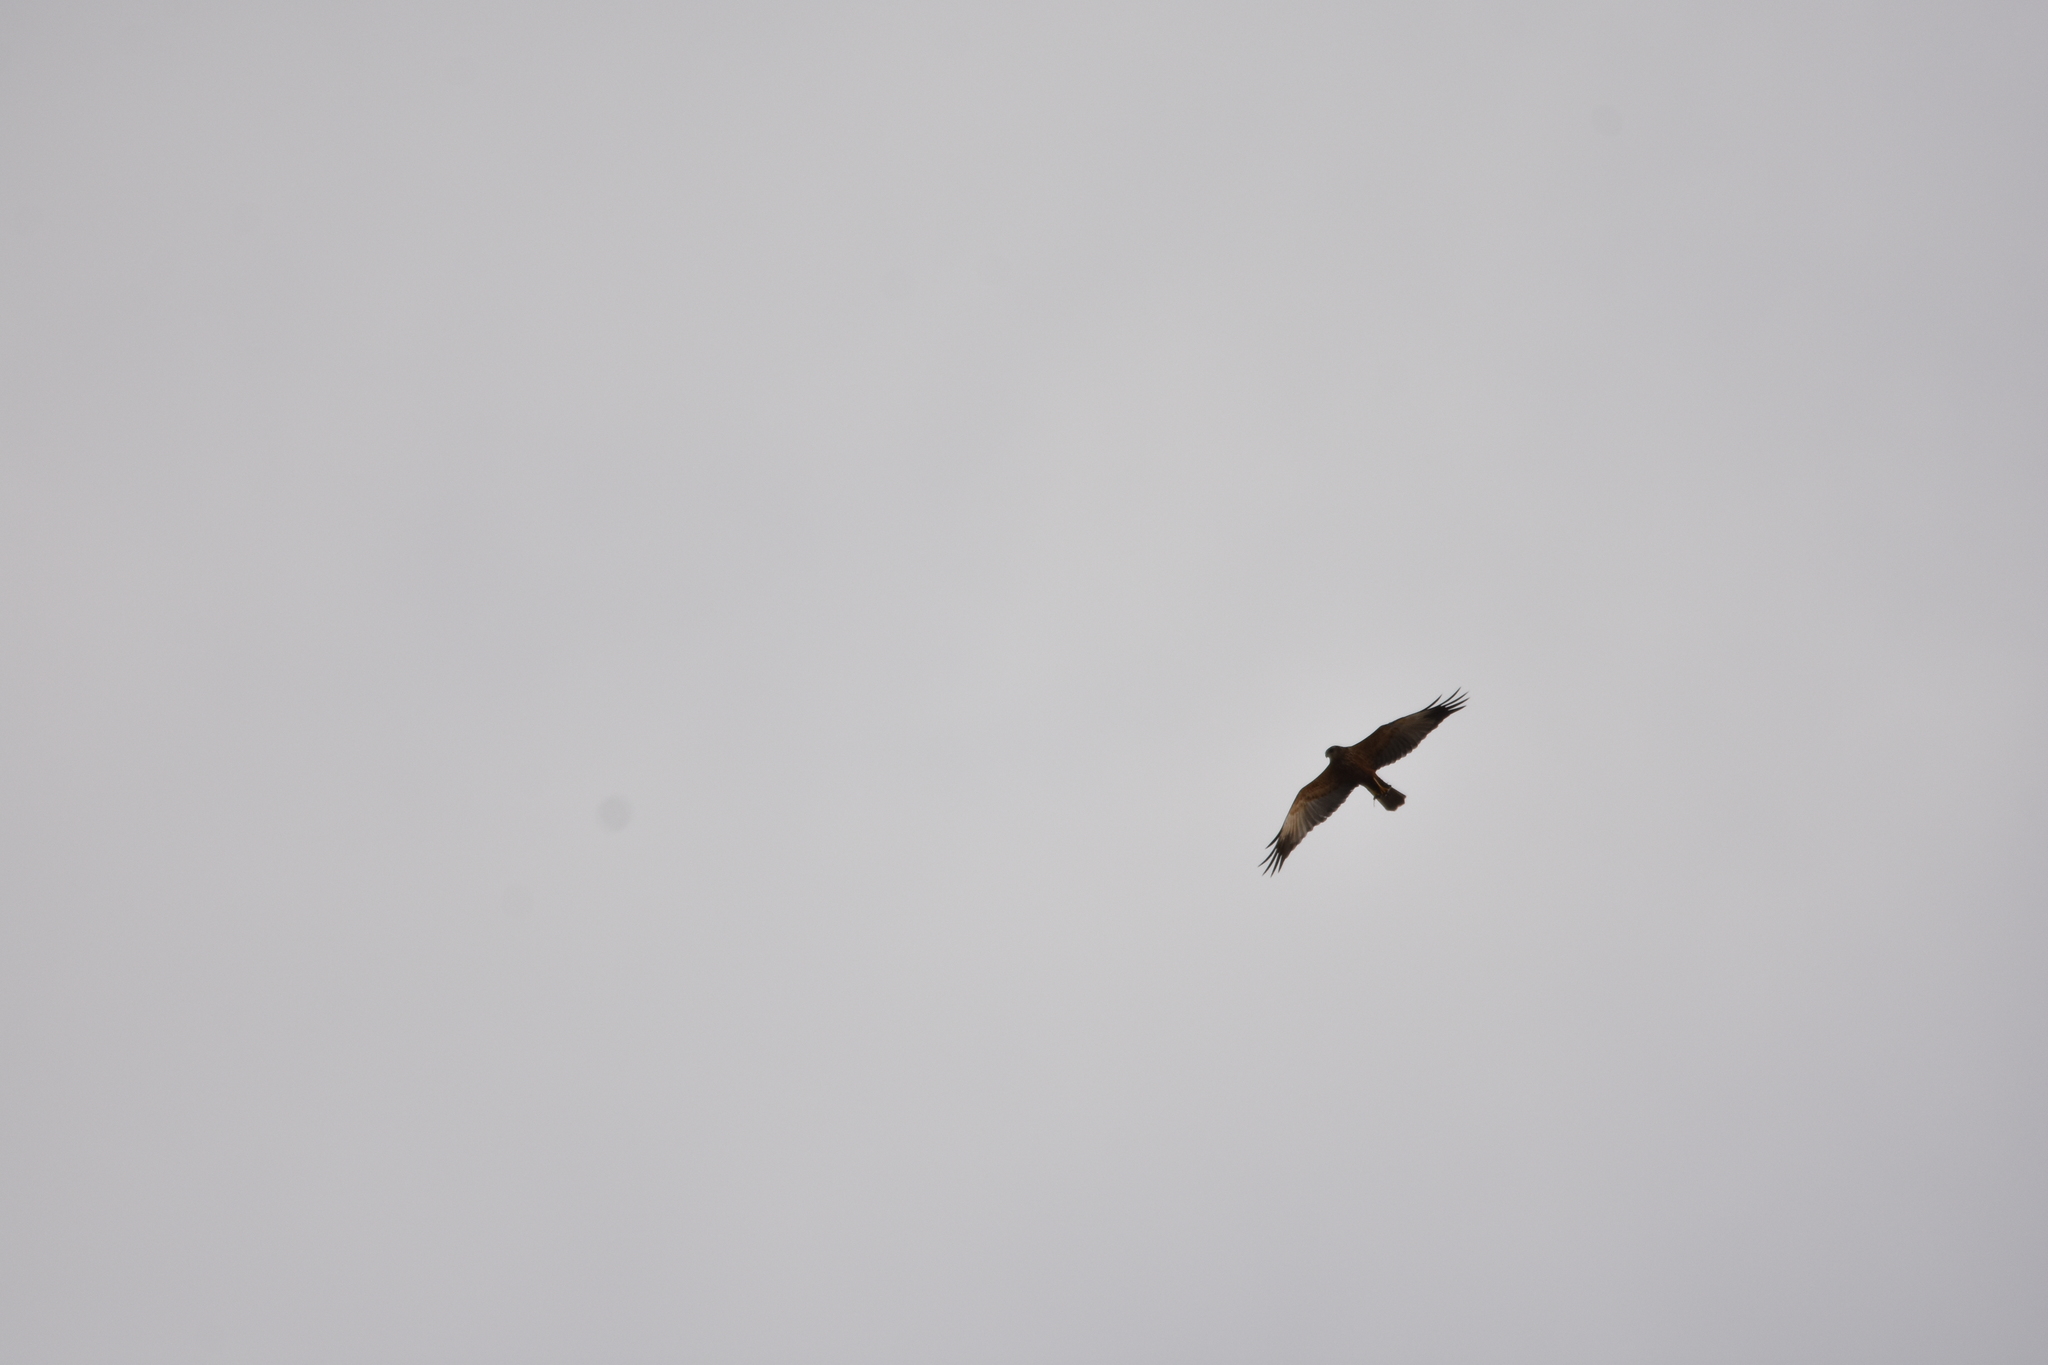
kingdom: Animalia
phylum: Chordata
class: Aves
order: Accipitriformes
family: Accipitridae
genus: Circus
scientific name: Circus aeruginosus
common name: Western marsh harrier
